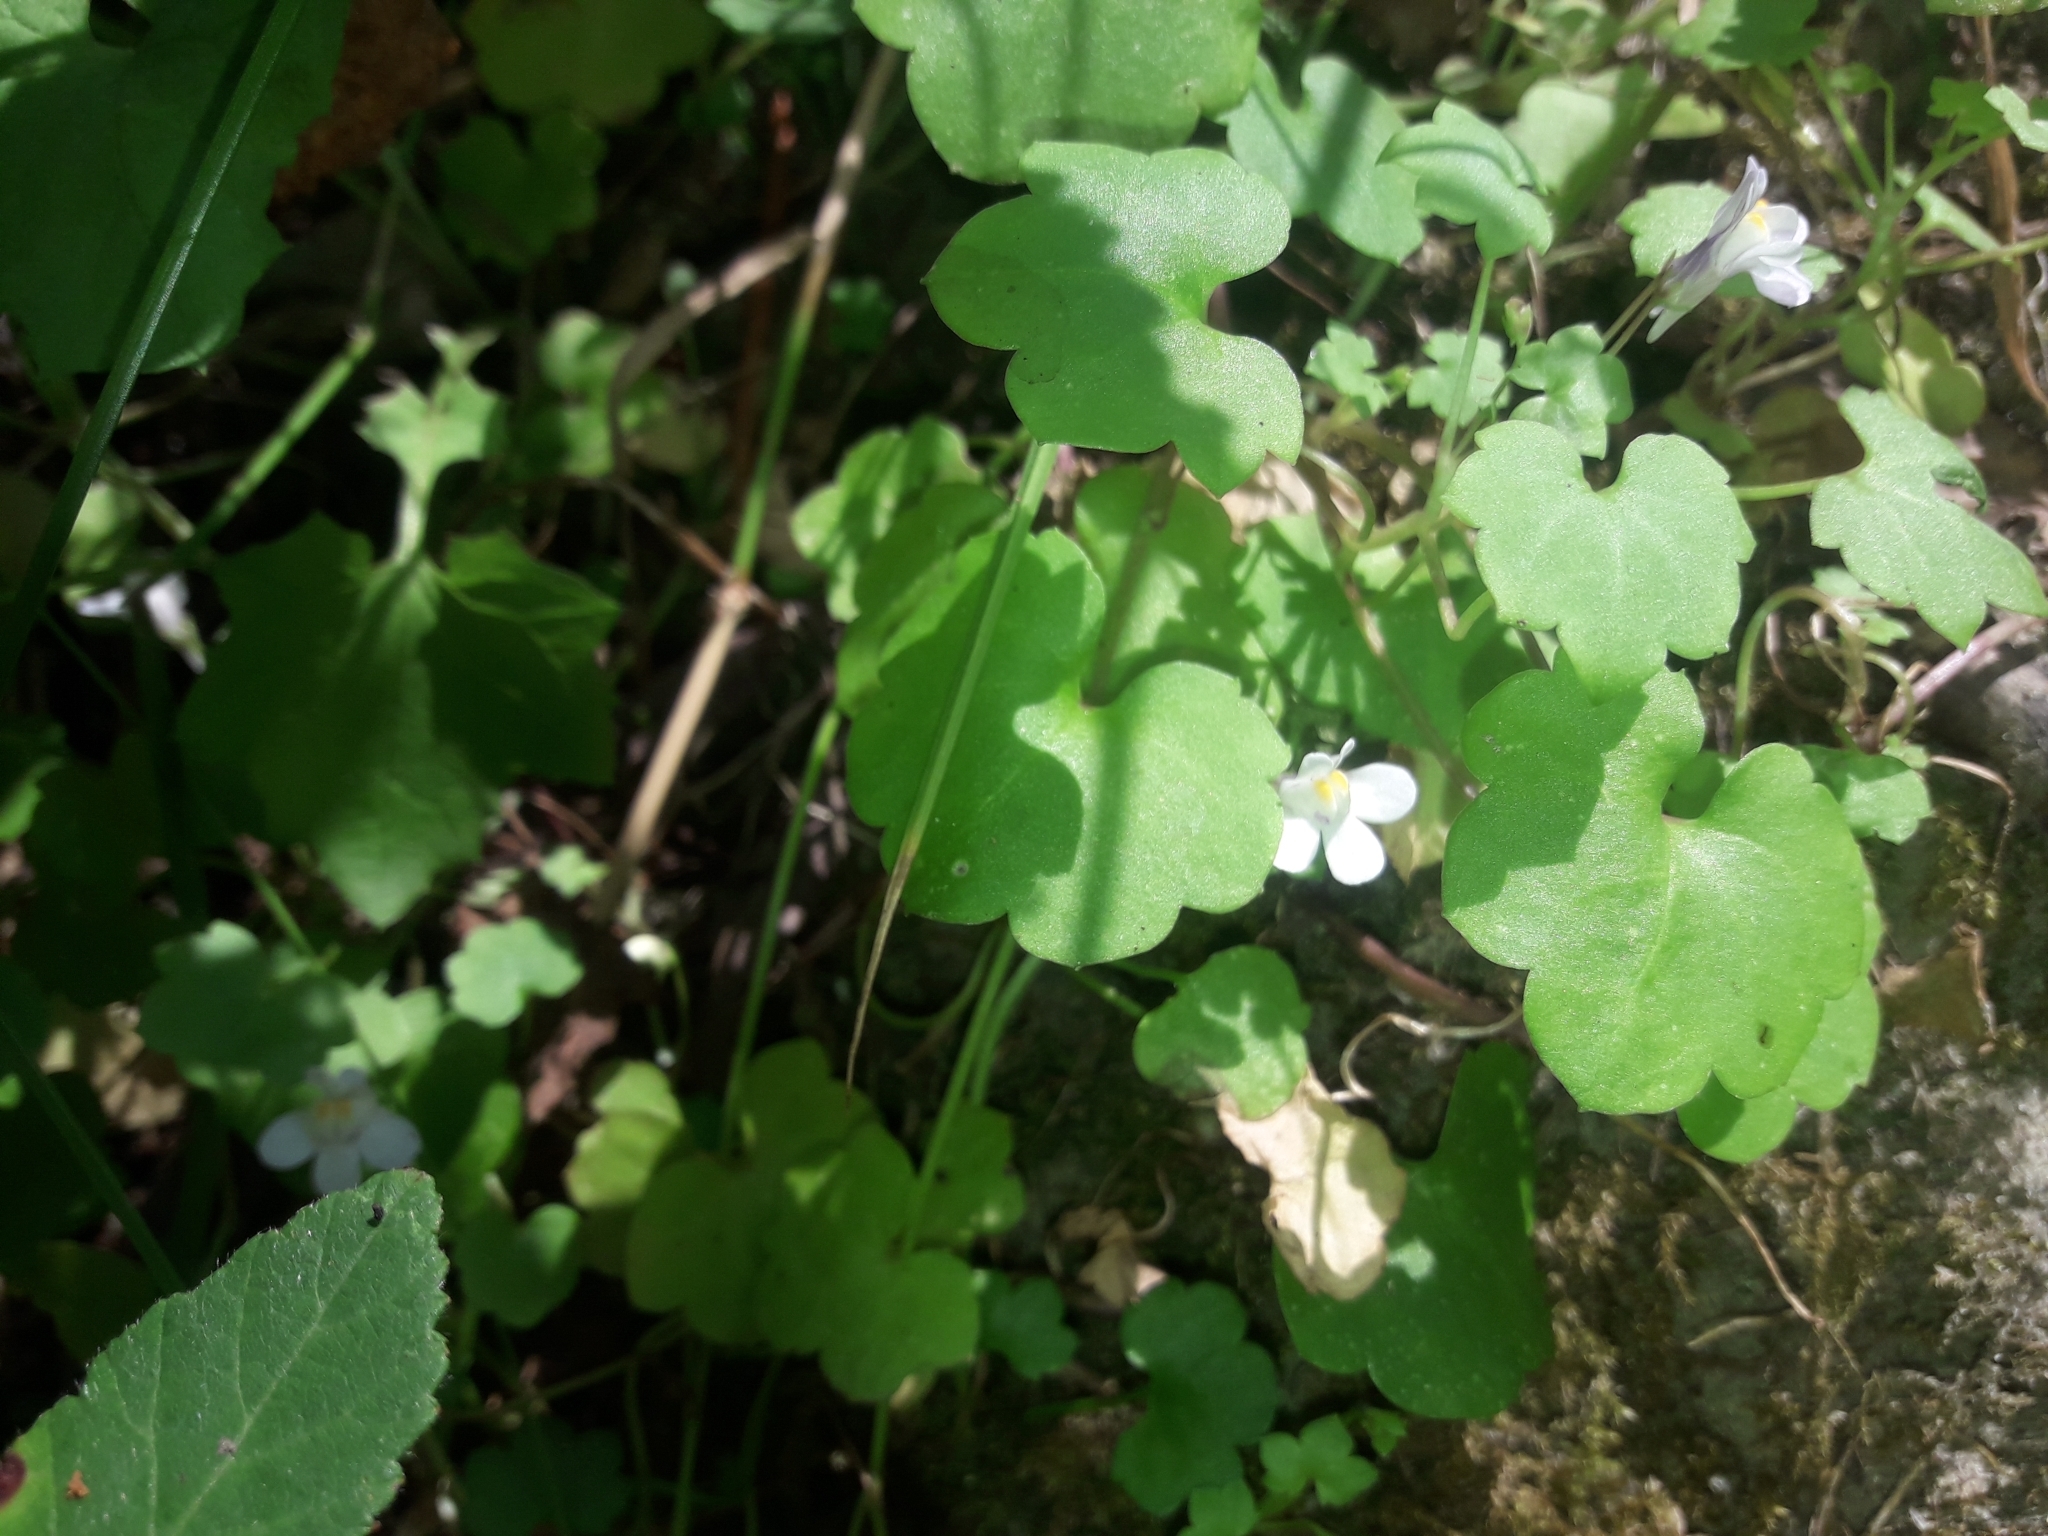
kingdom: Plantae
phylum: Tracheophyta
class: Magnoliopsida
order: Lamiales
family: Plantaginaceae
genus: Cymbalaria
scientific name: Cymbalaria muralis
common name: Ivy-leaved toadflax
